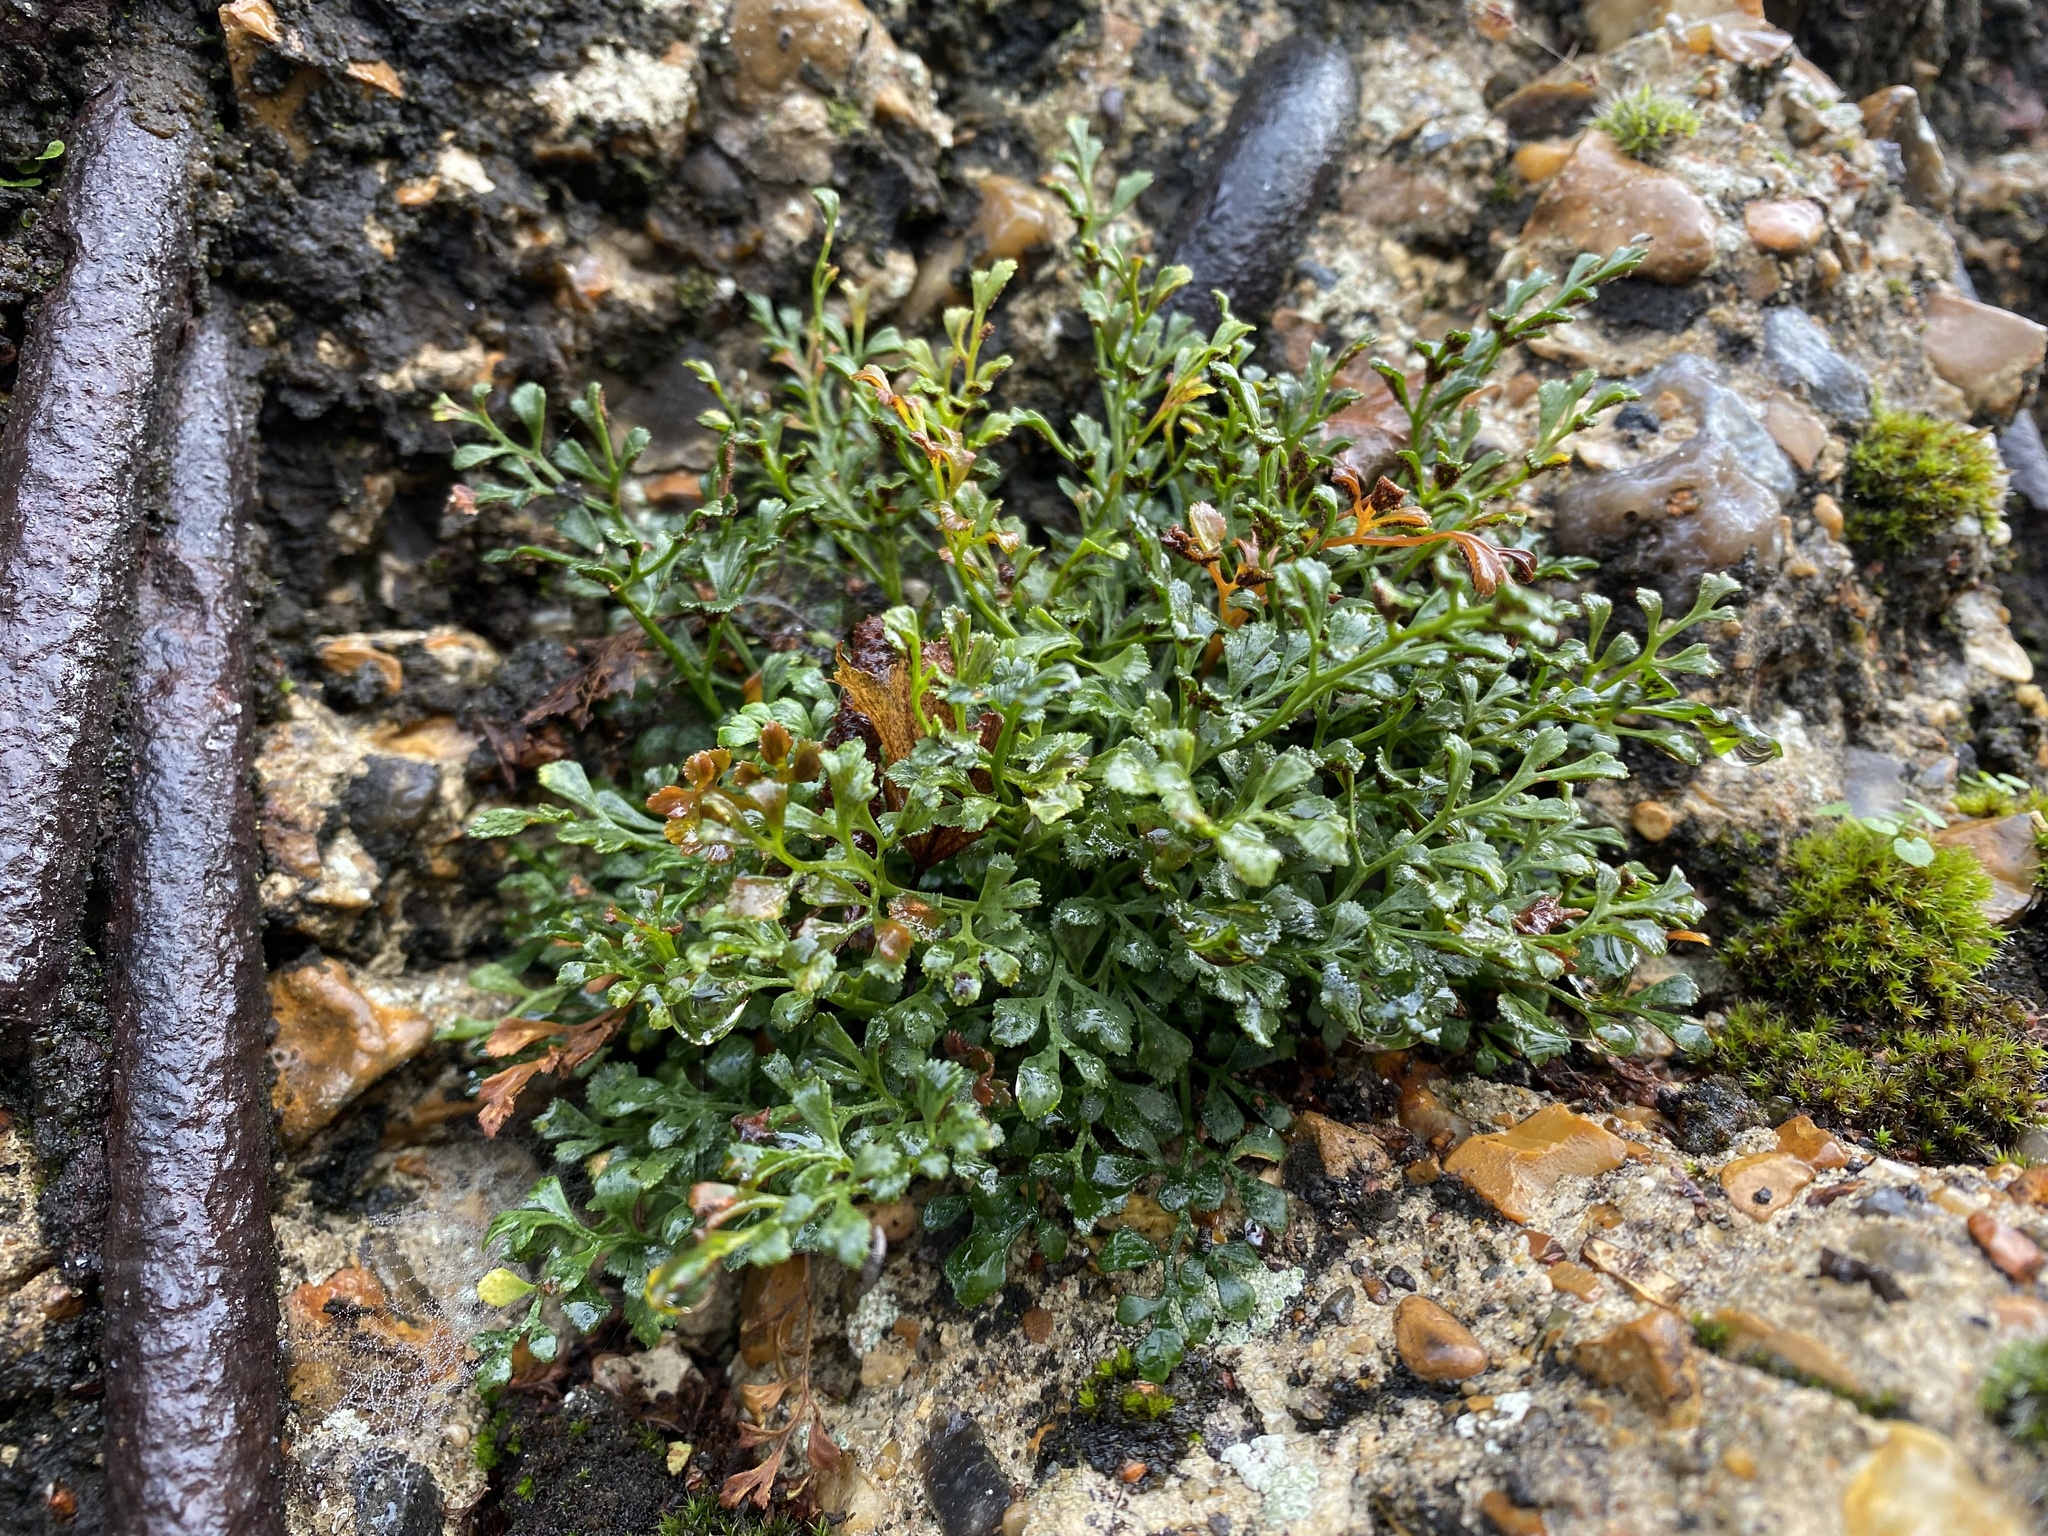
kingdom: Plantae
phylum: Tracheophyta
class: Polypodiopsida
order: Polypodiales
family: Aspleniaceae
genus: Asplenium
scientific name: Asplenium ruta-muraria
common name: Wall-rue
